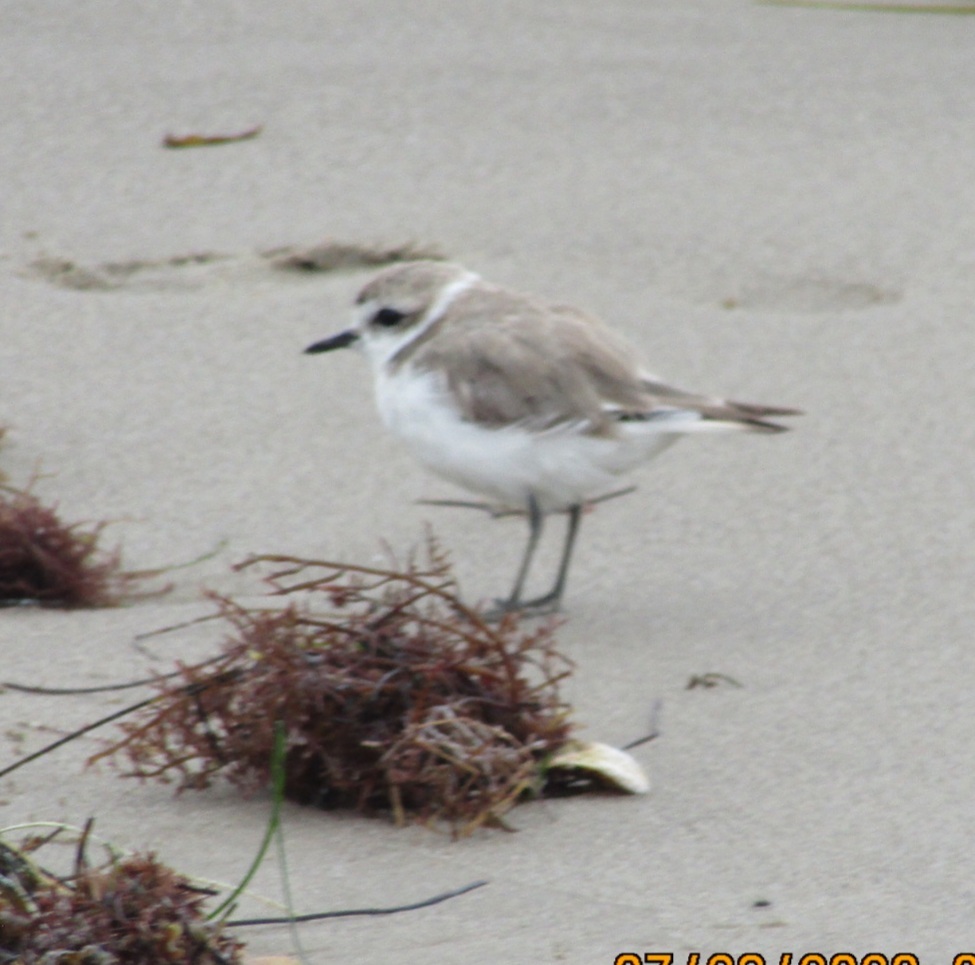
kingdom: Animalia
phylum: Chordata
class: Aves
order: Charadriiformes
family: Charadriidae
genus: Anarhynchus
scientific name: Anarhynchus
